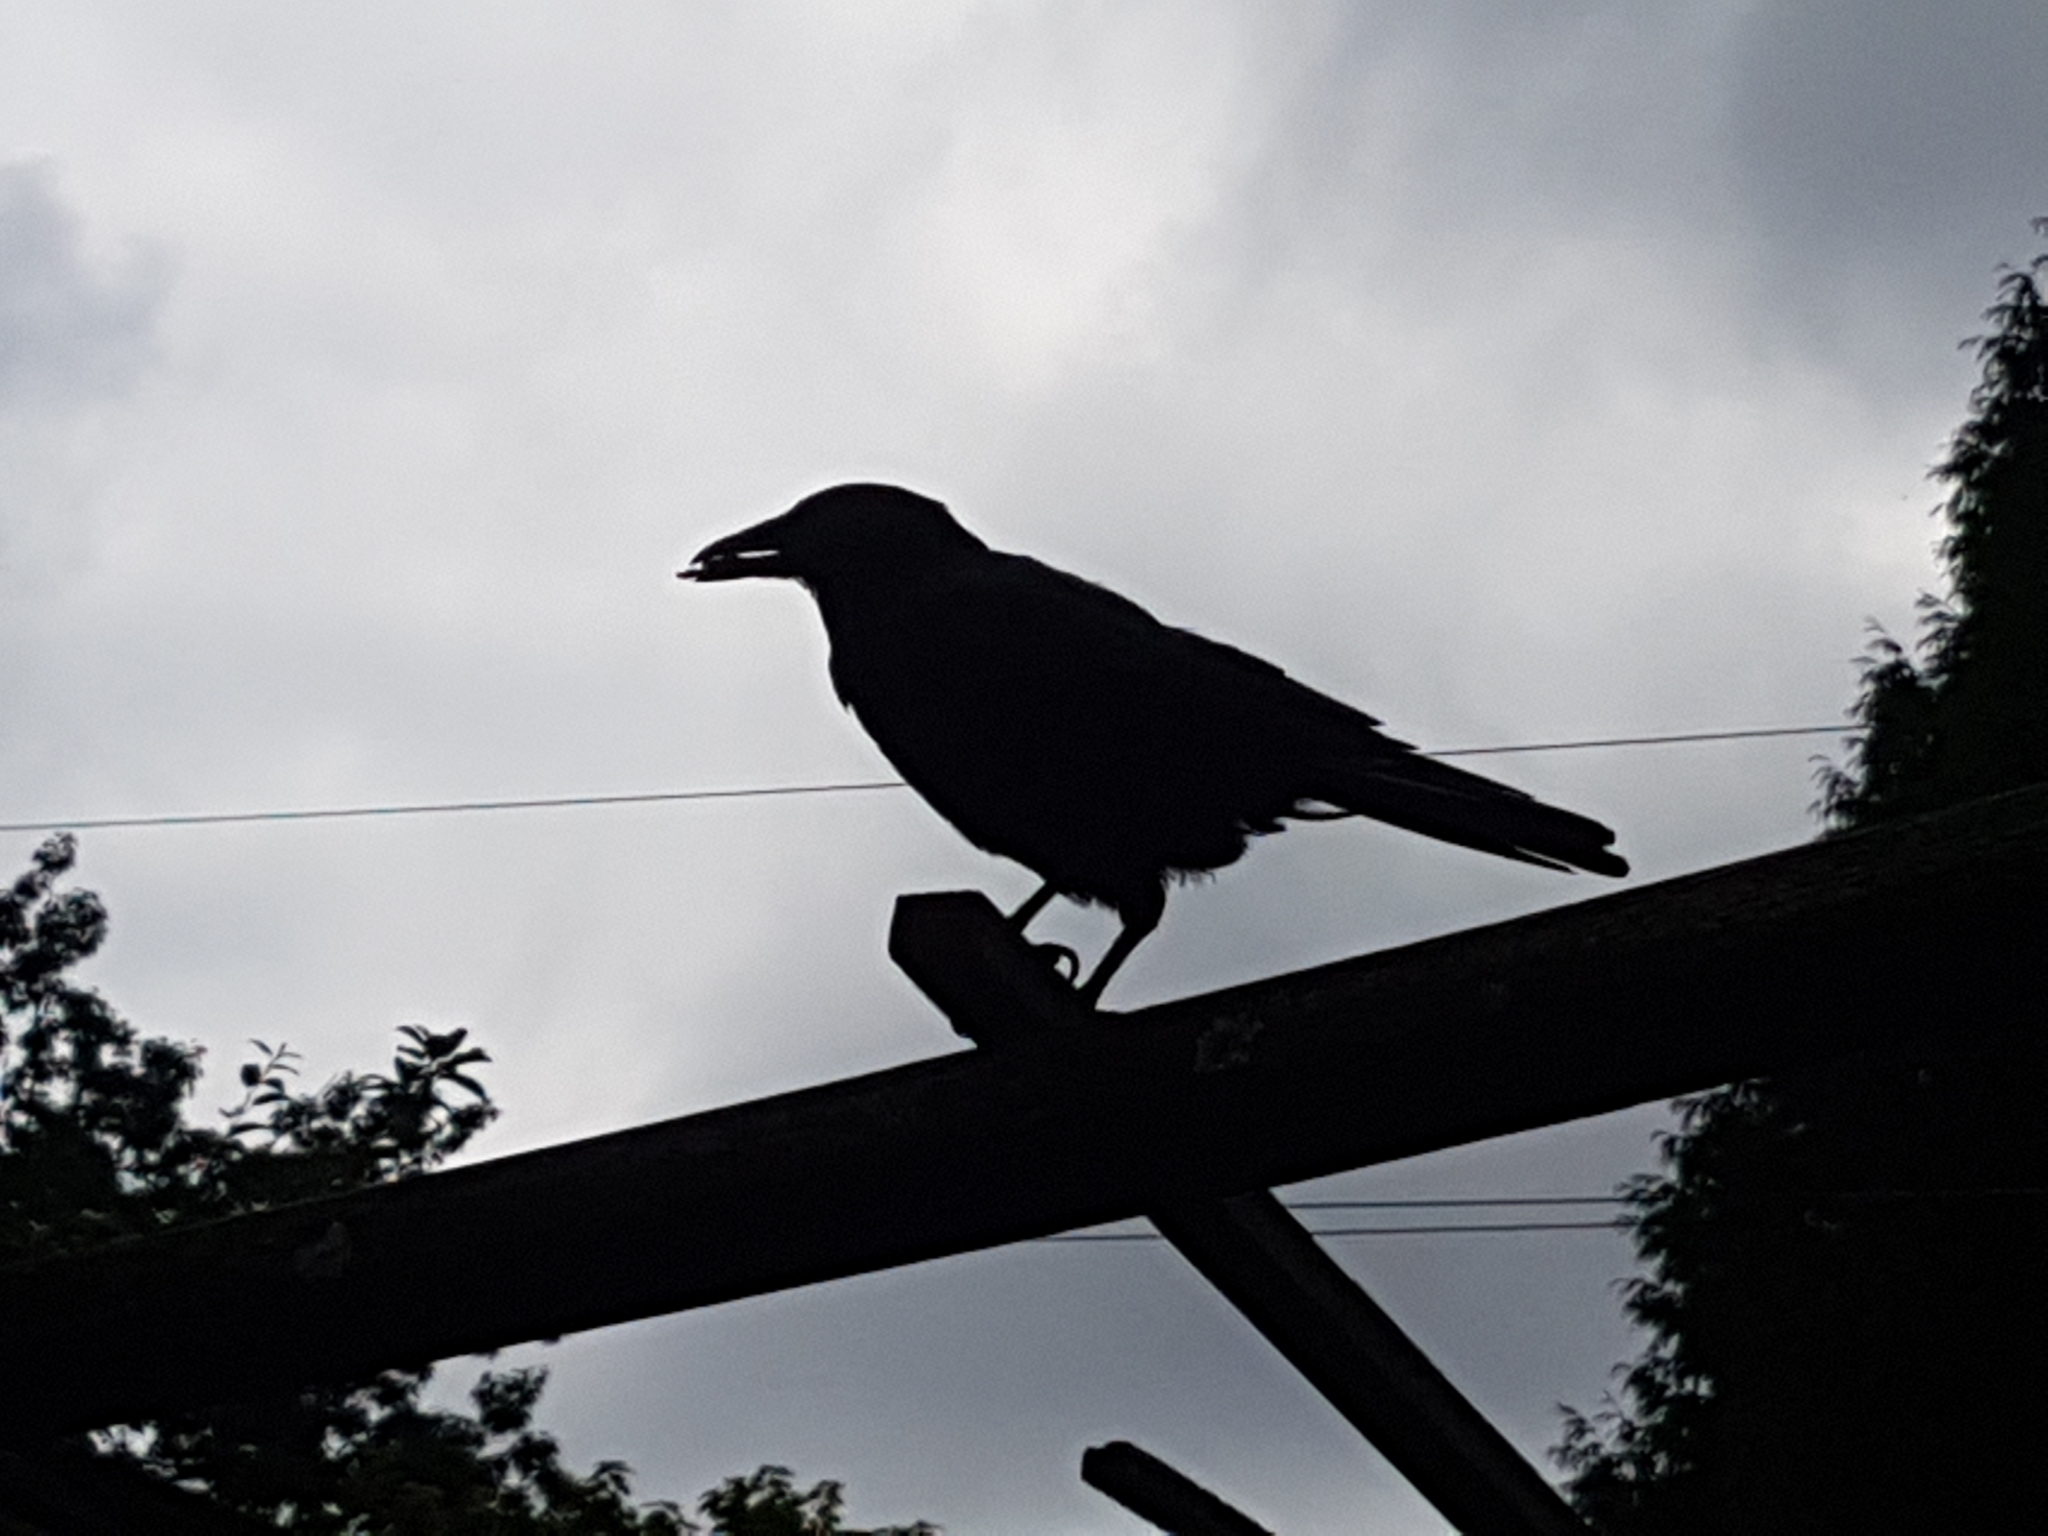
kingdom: Animalia
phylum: Chordata
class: Aves
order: Passeriformes
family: Corvidae
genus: Corvus
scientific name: Corvus brachyrhynchos
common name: American crow
